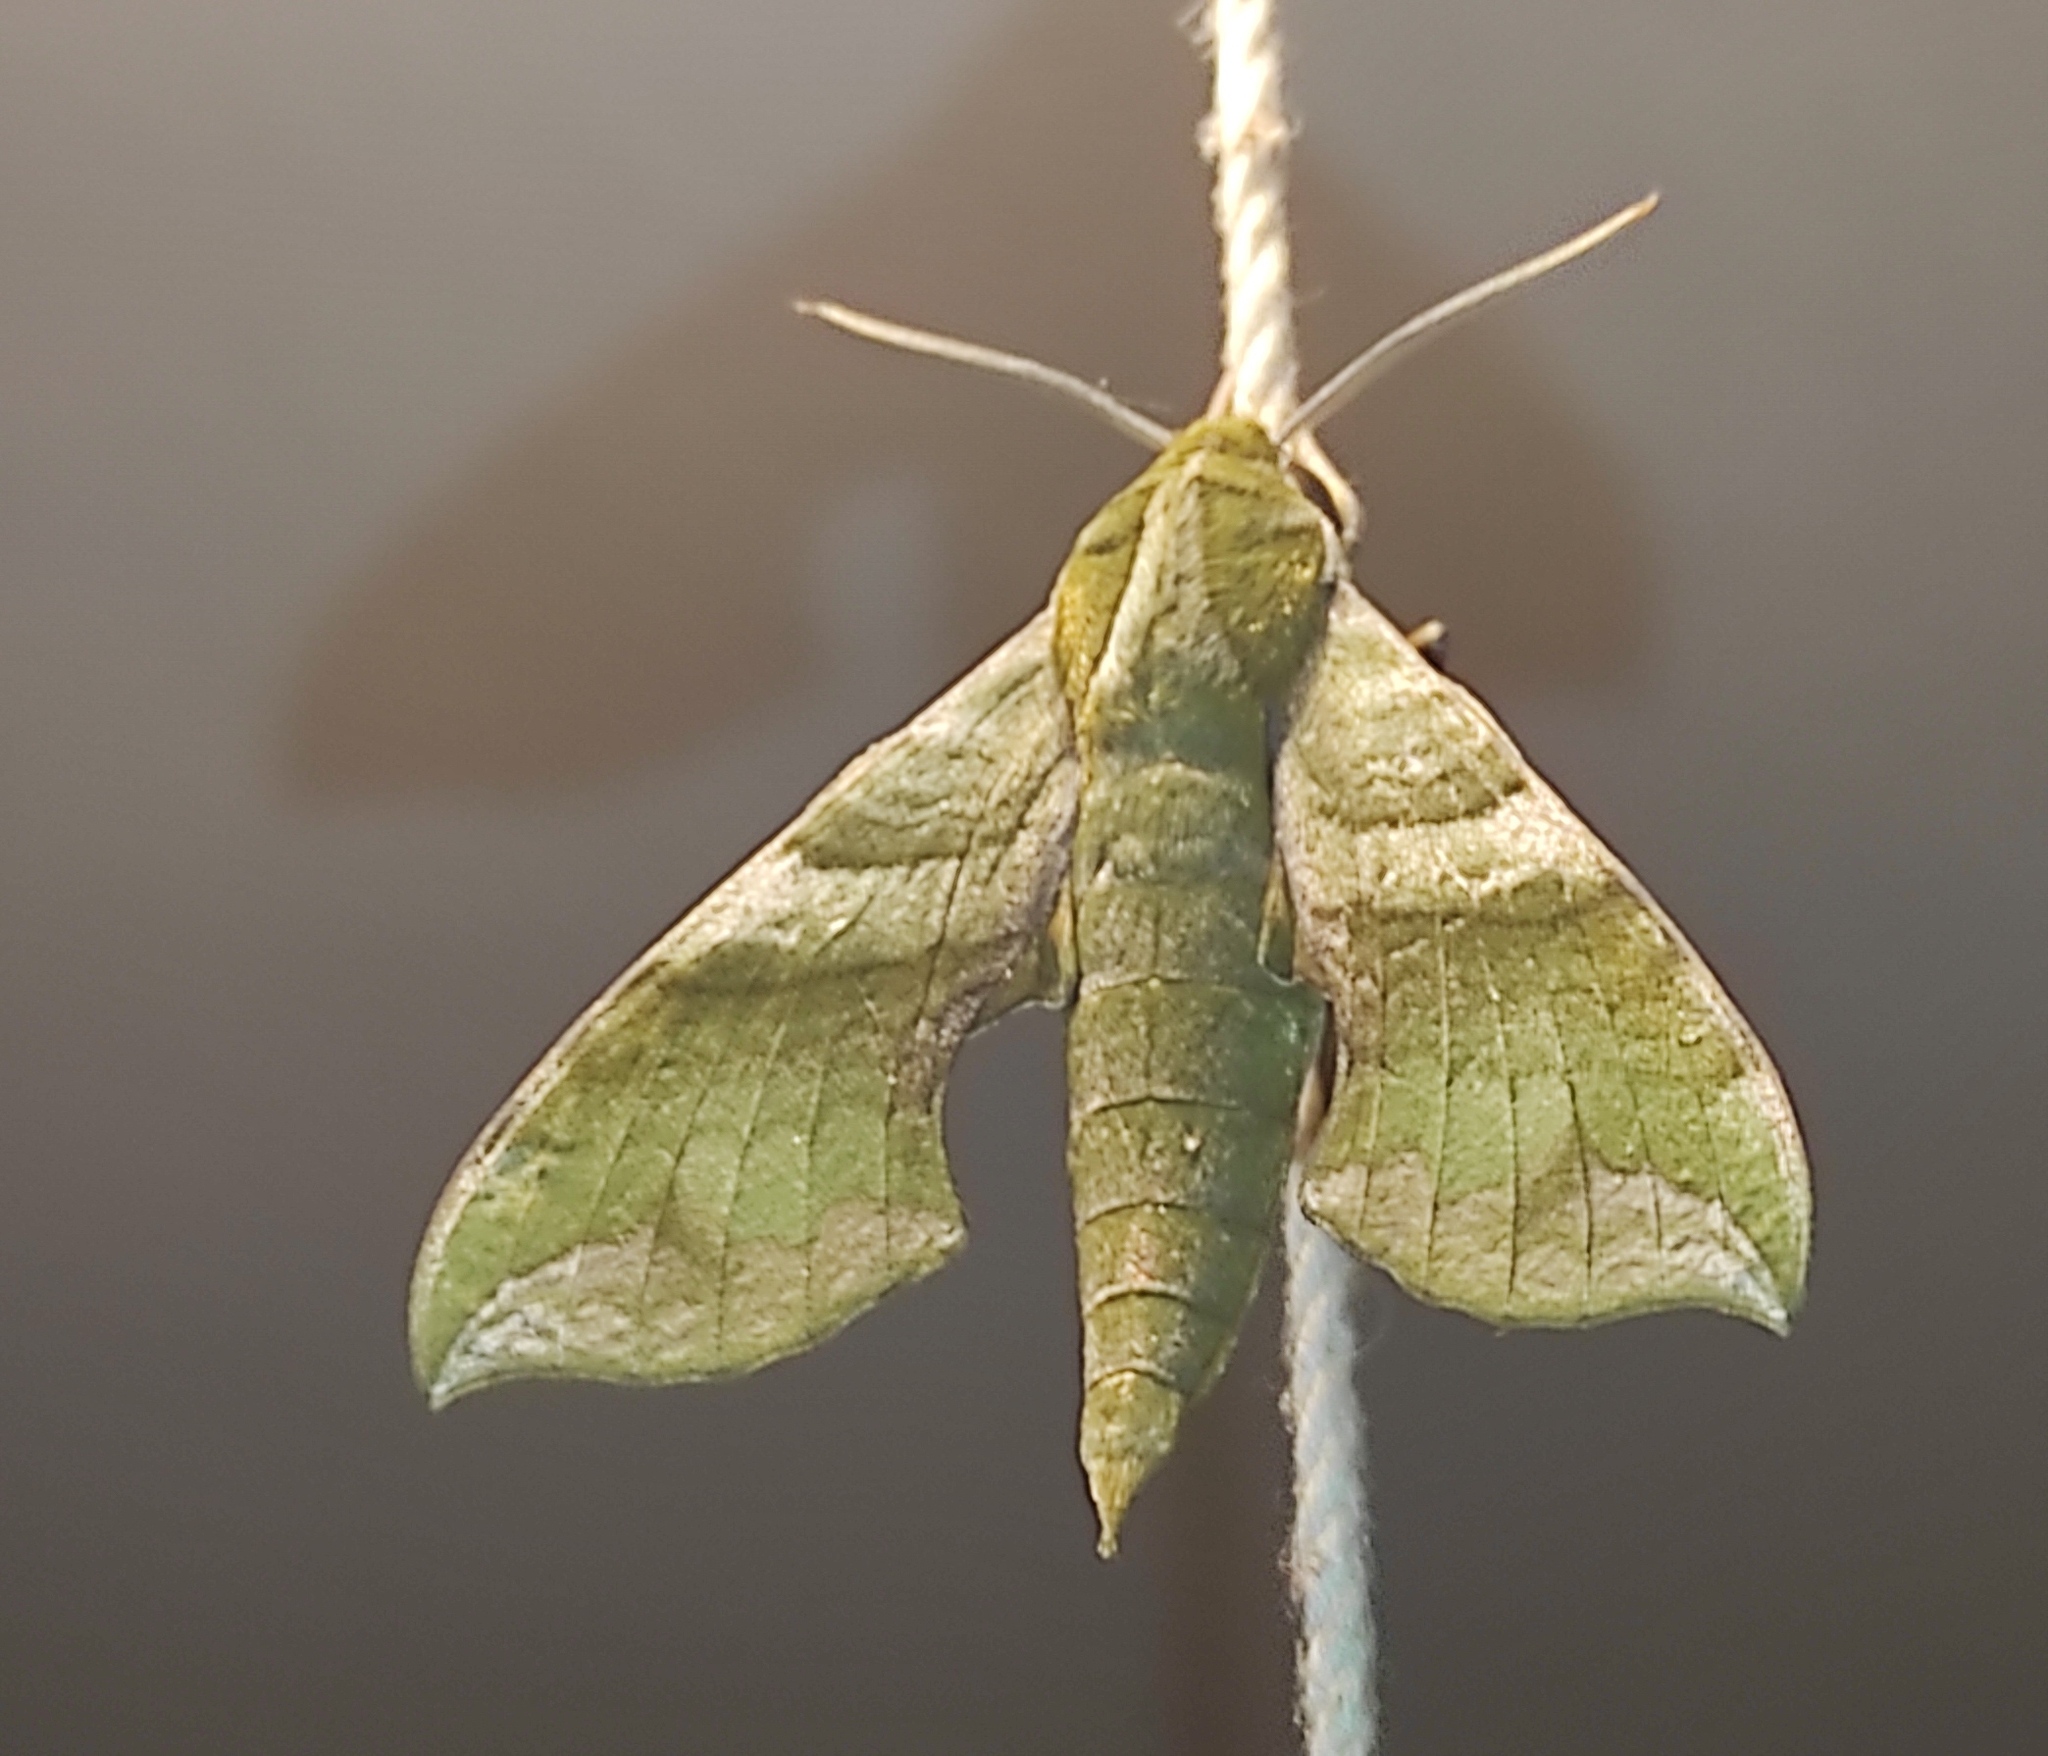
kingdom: Animalia
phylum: Arthropoda
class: Insecta
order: Lepidoptera
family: Sphingidae
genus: Xylophanes
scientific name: Xylophanes pluto
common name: Pluto sphinx
